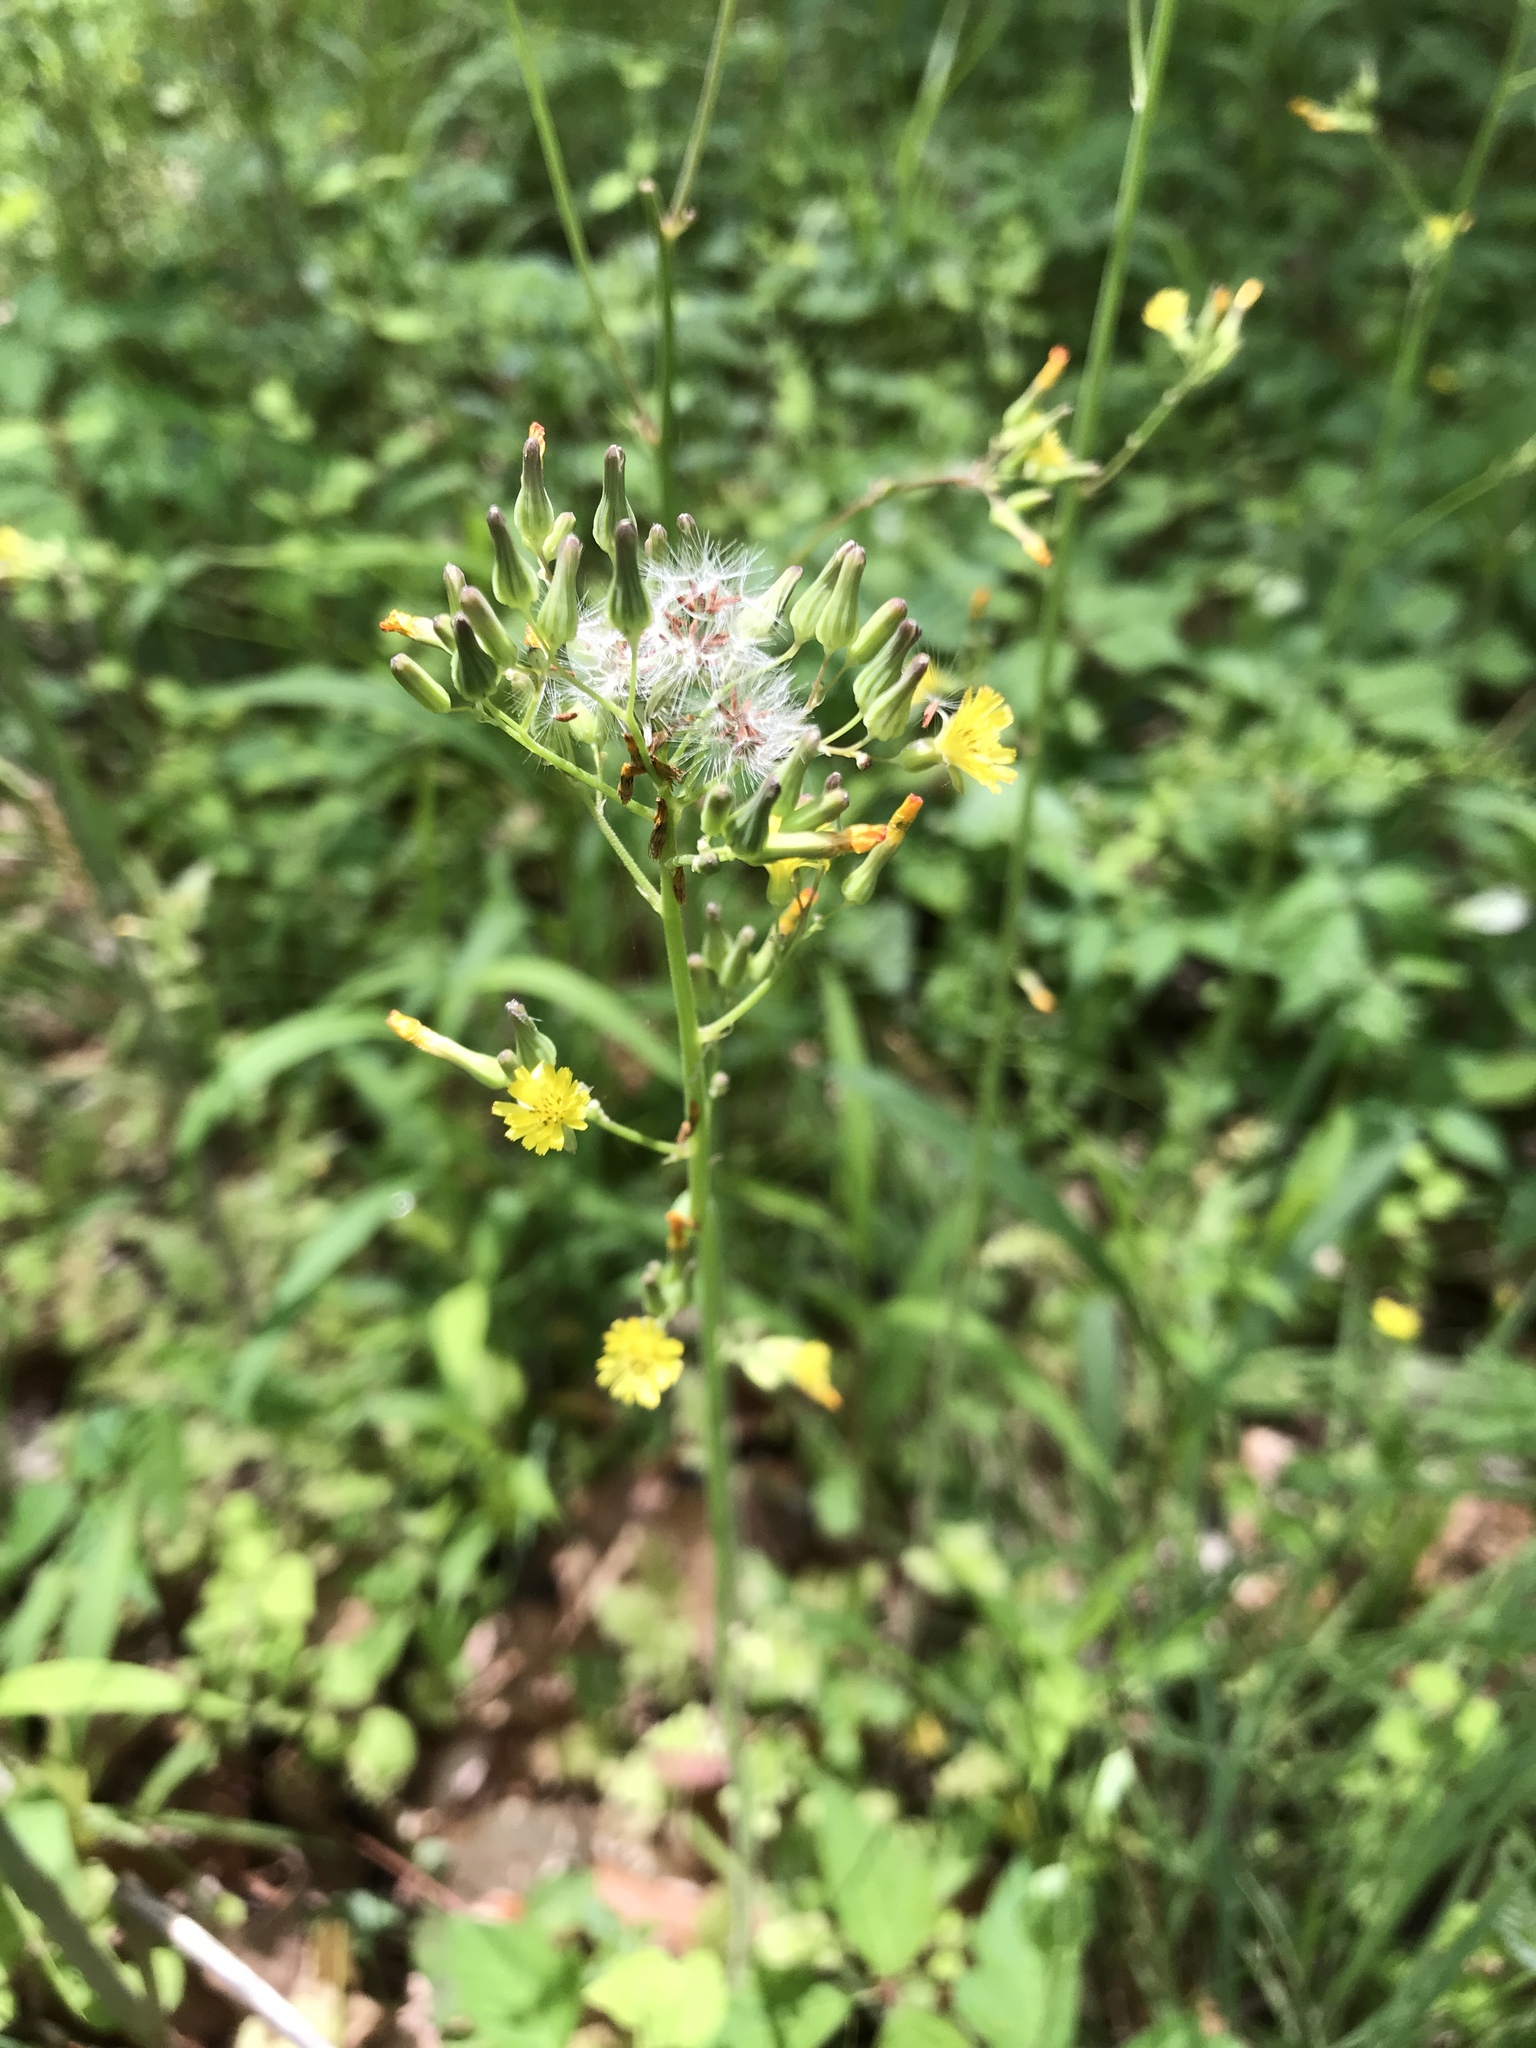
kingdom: Plantae
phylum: Tracheophyta
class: Magnoliopsida
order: Asterales
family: Asteraceae
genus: Youngia
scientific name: Youngia japonica
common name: Oriental false hawksbeard
